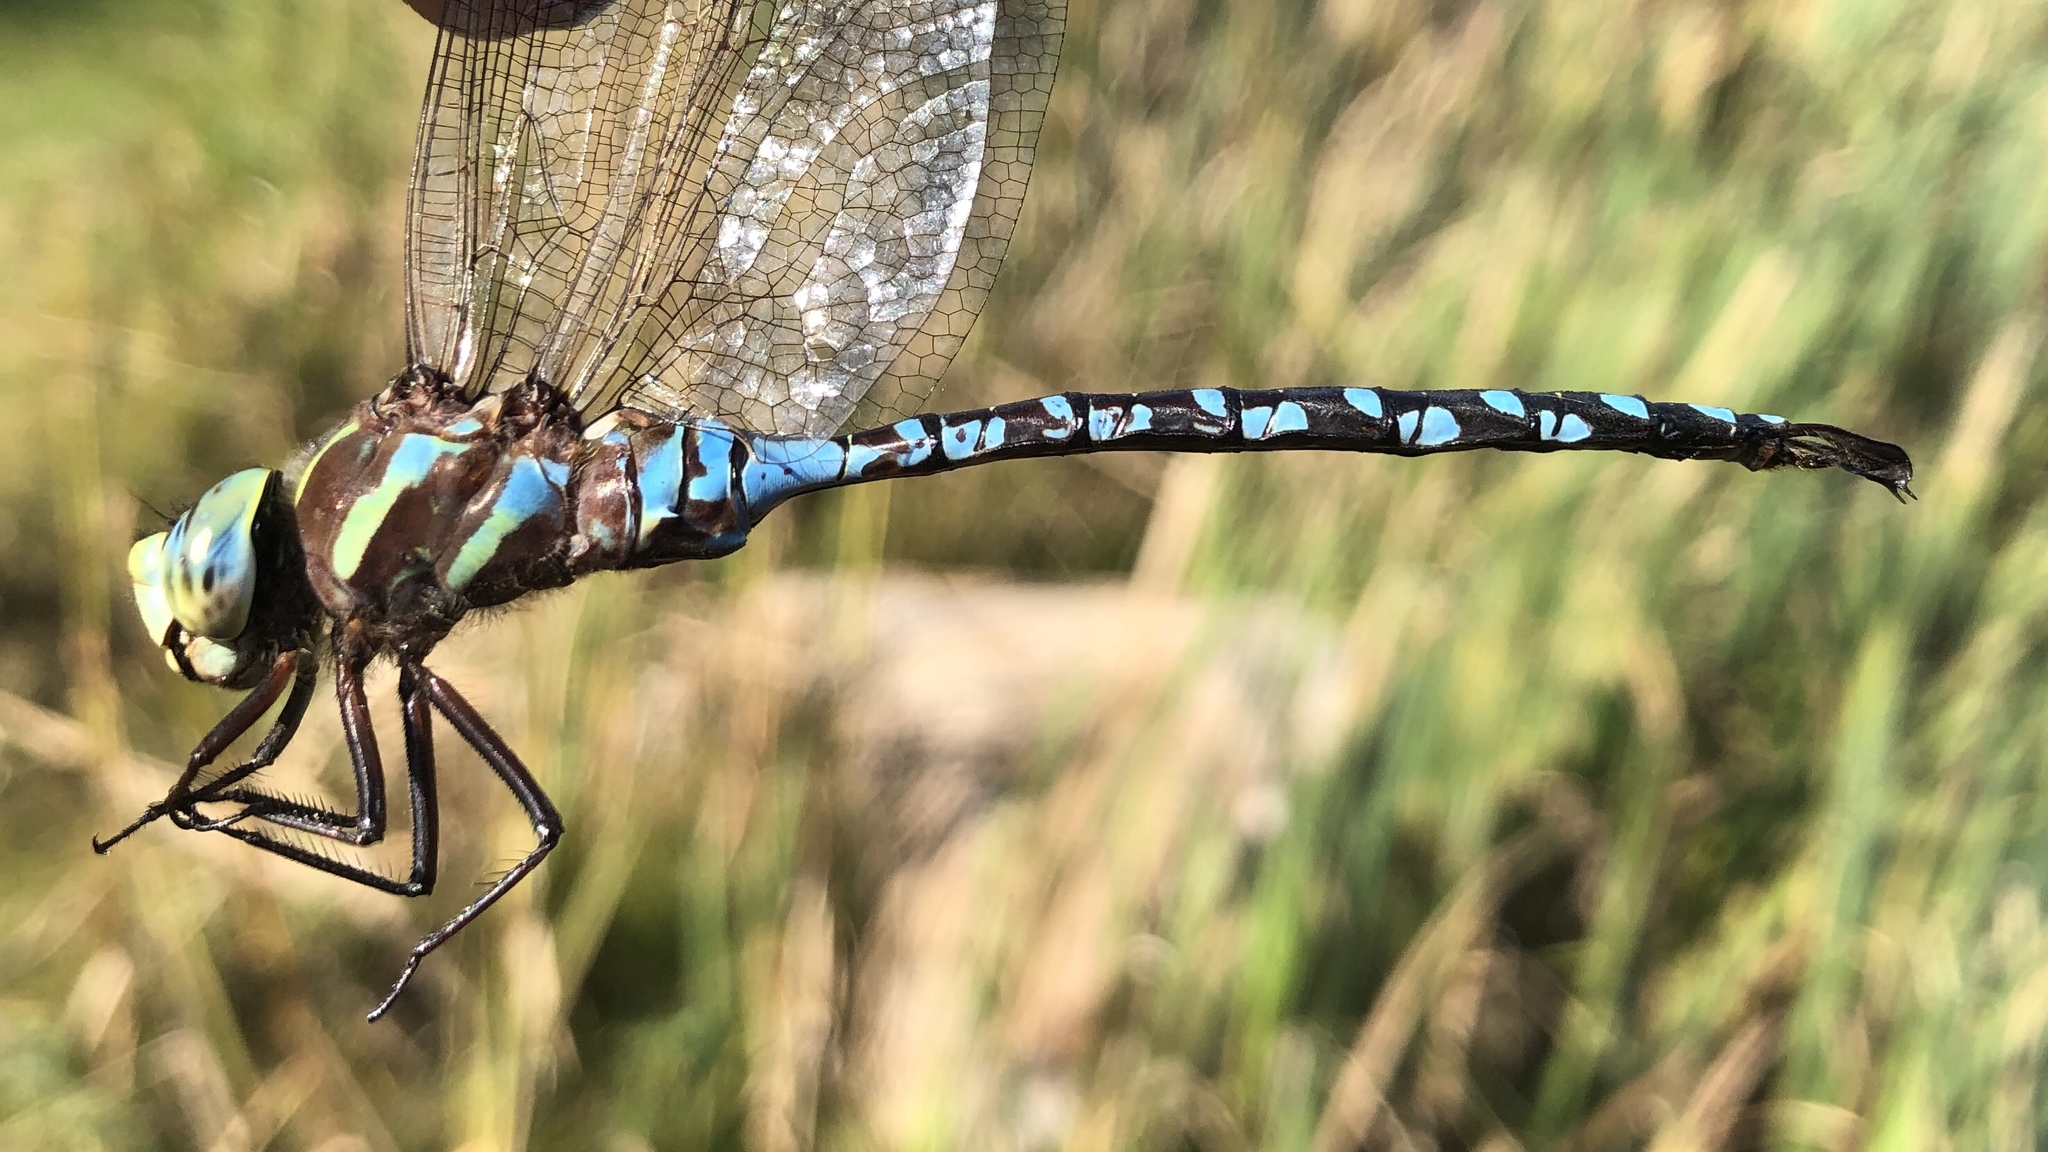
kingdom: Animalia
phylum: Arthropoda
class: Insecta
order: Odonata
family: Aeshnidae
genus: Aeshna
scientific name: Aeshna constricta
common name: Lance-tipped darner
